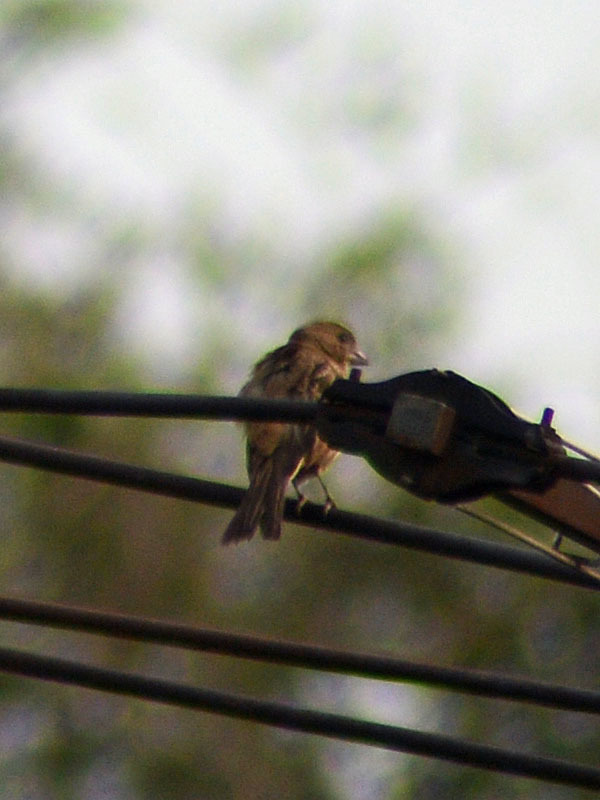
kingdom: Animalia
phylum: Chordata
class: Aves
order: Passeriformes
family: Fringillidae
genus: Haemorhous
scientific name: Haemorhous mexicanus
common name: House finch
